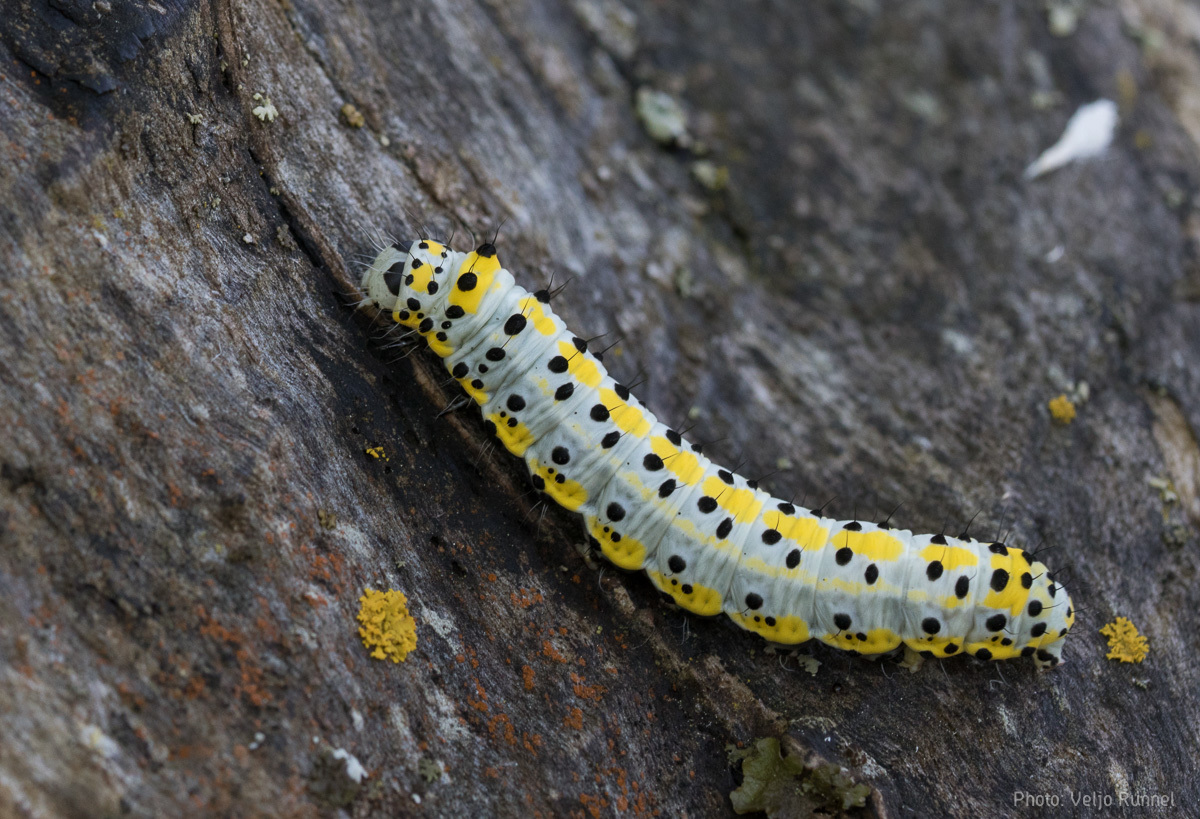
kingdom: Animalia
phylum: Arthropoda
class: Insecta
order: Lepidoptera
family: Noctuidae
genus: Diloba
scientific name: Diloba caeruleocephala
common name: Figure of eight
